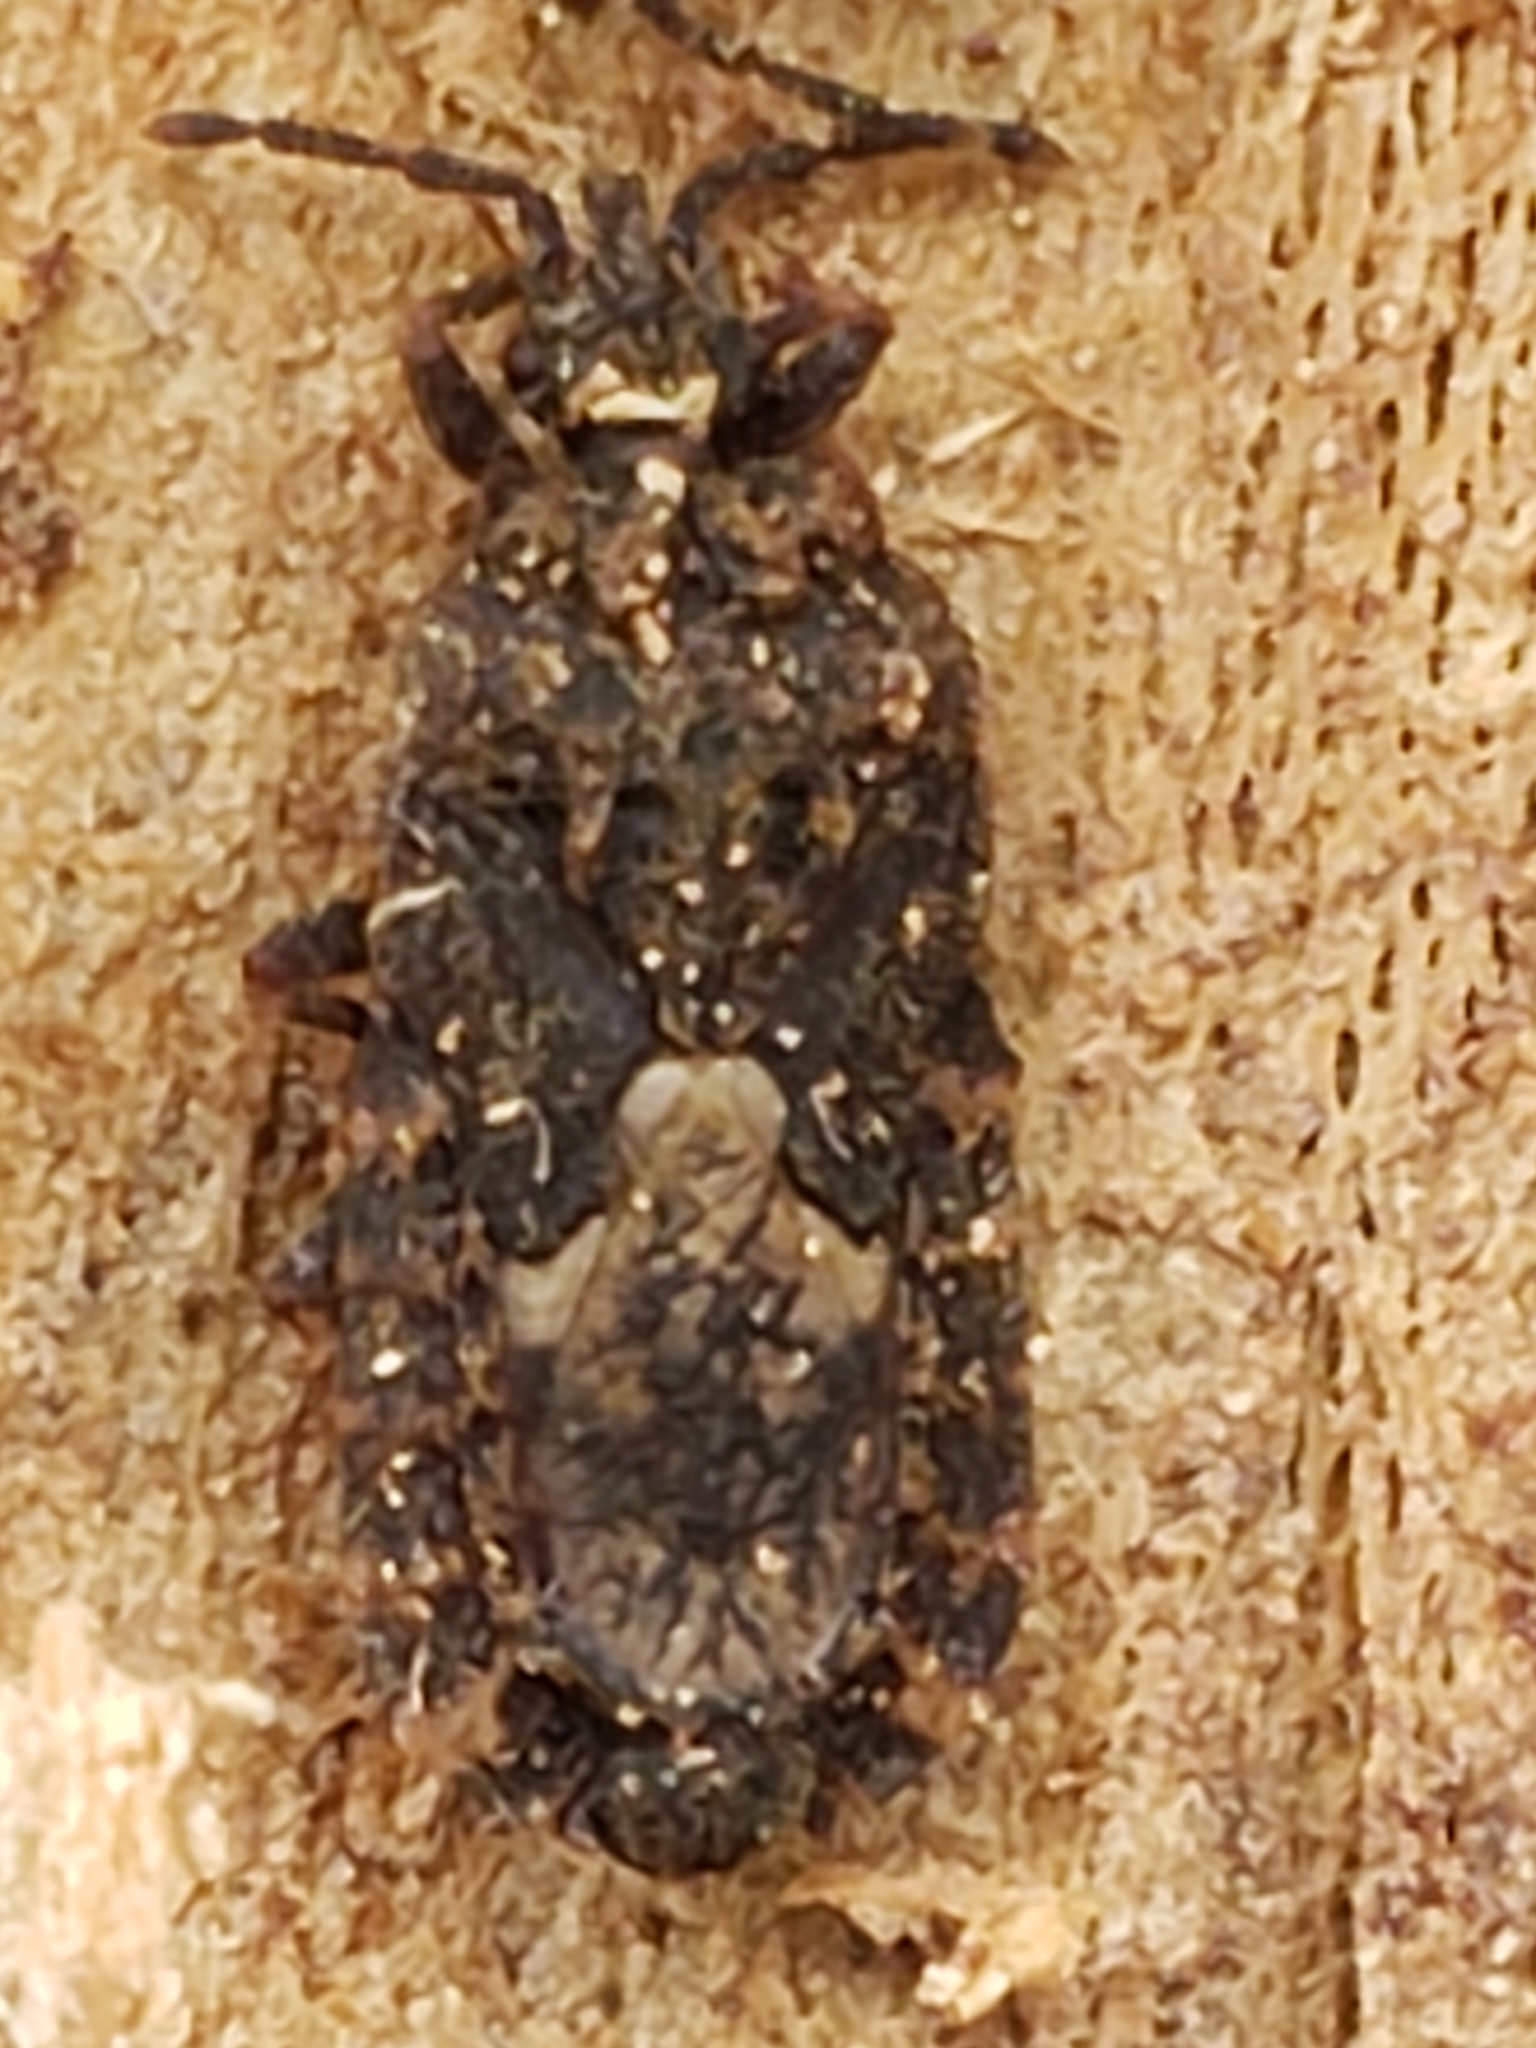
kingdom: Animalia
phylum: Arthropoda
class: Insecta
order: Hemiptera
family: Aradidae
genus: Mezira
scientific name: Mezira
